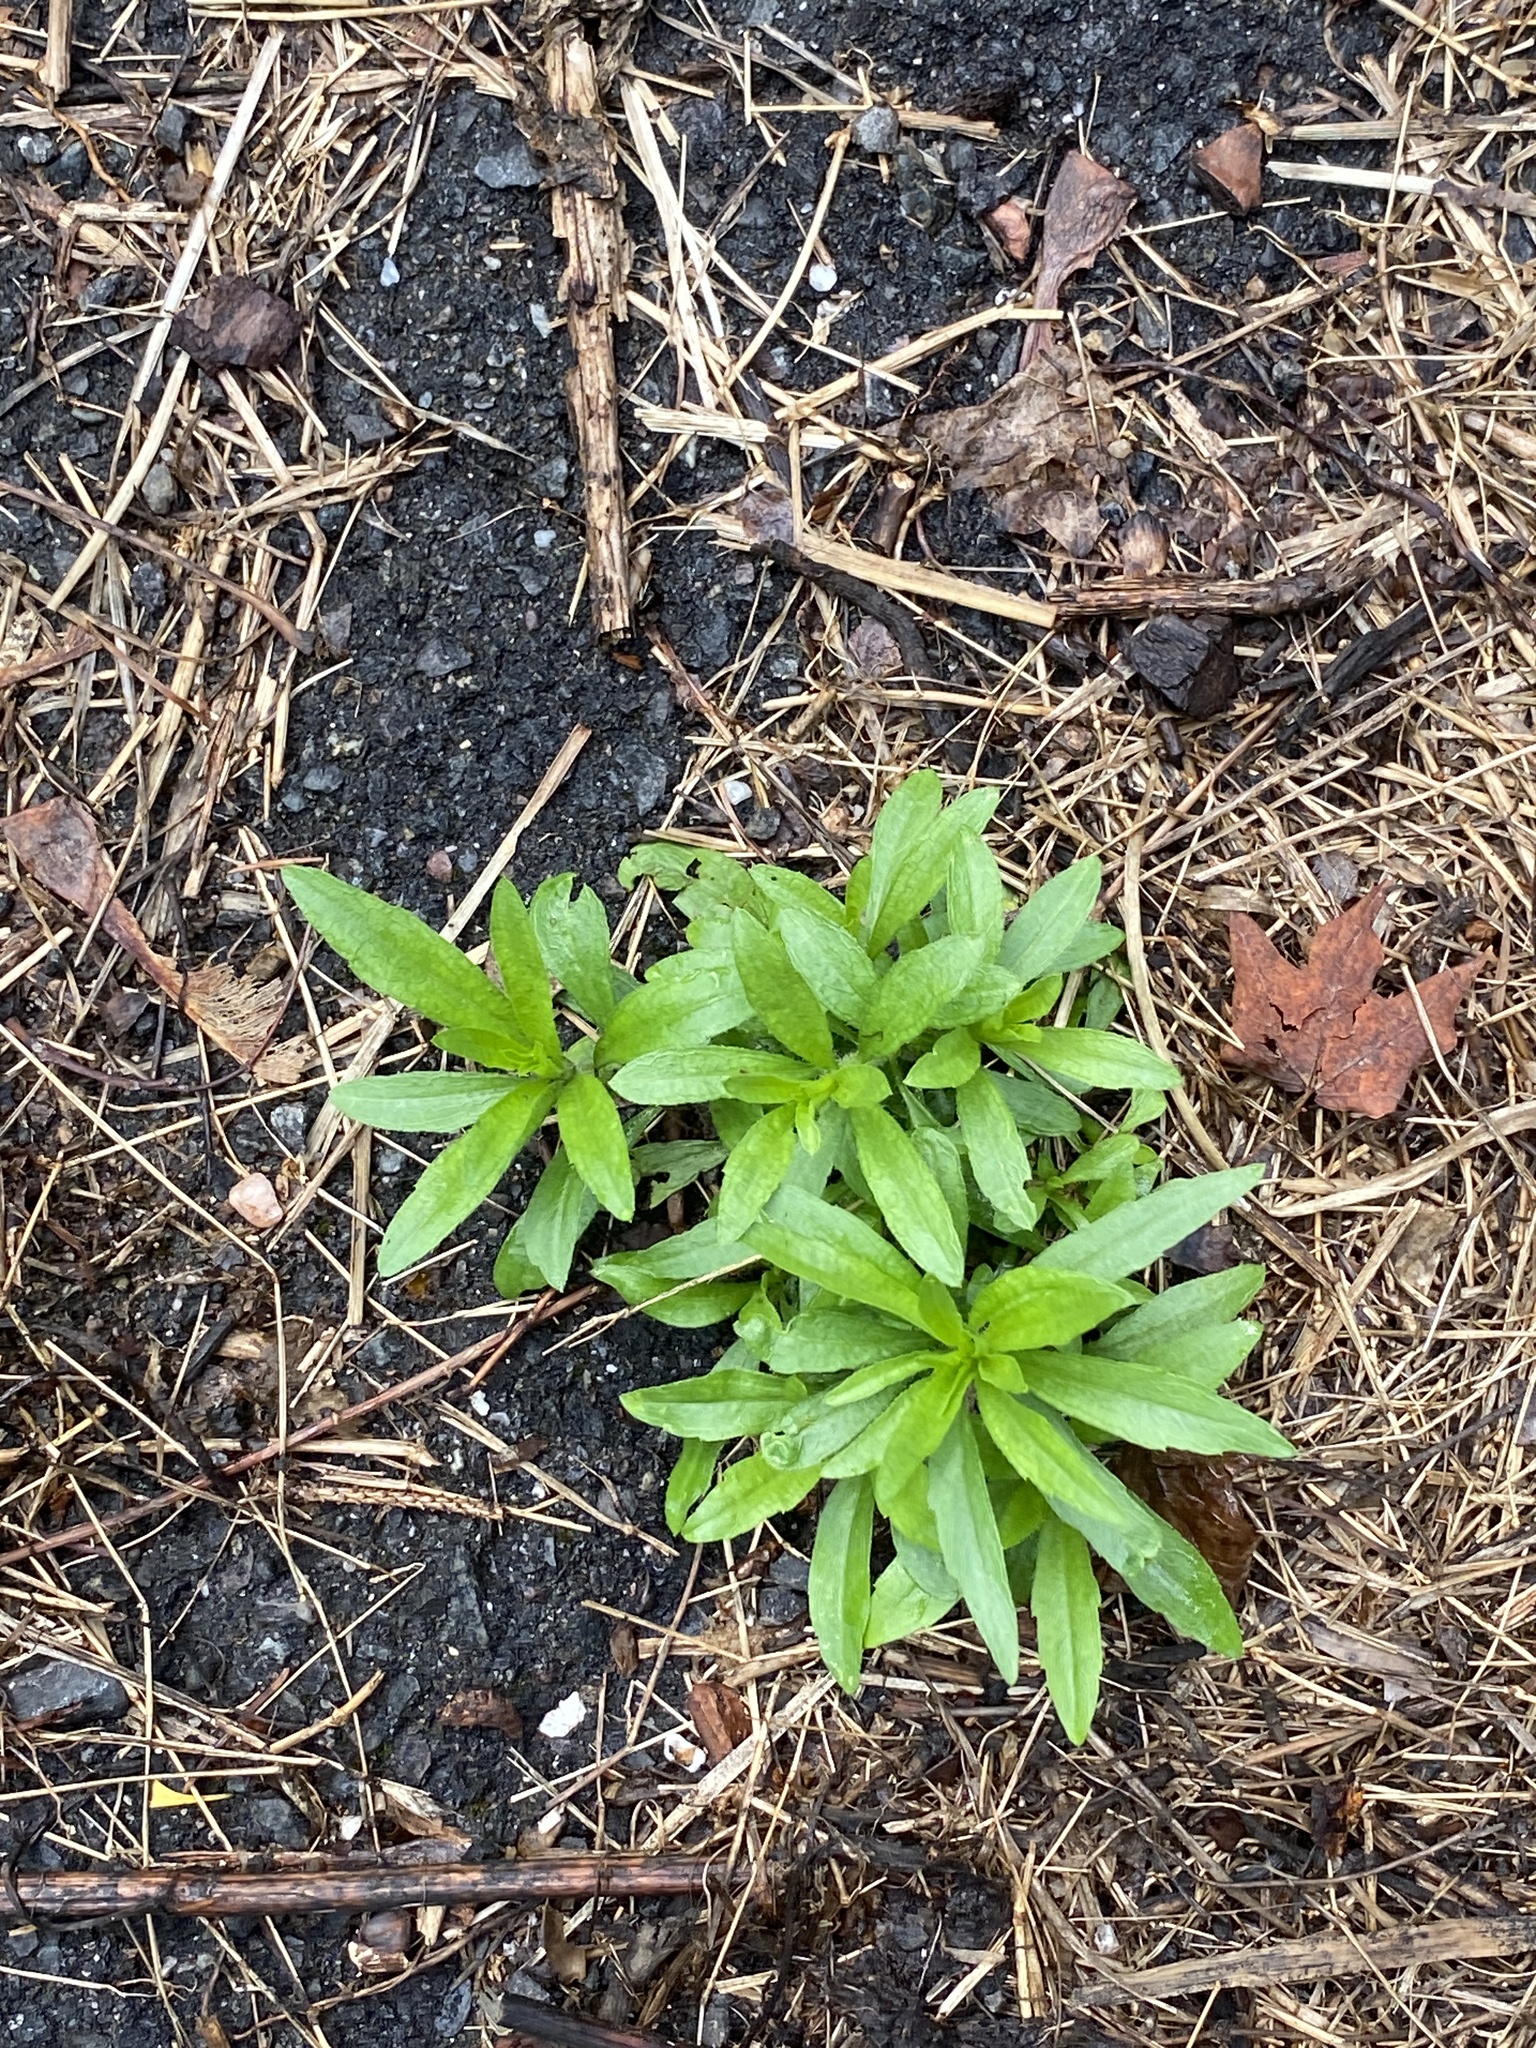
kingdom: Plantae
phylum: Tracheophyta
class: Magnoliopsida
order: Asterales
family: Asteraceae
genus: Erigeron
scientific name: Erigeron canadensis
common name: Canadian fleabane
